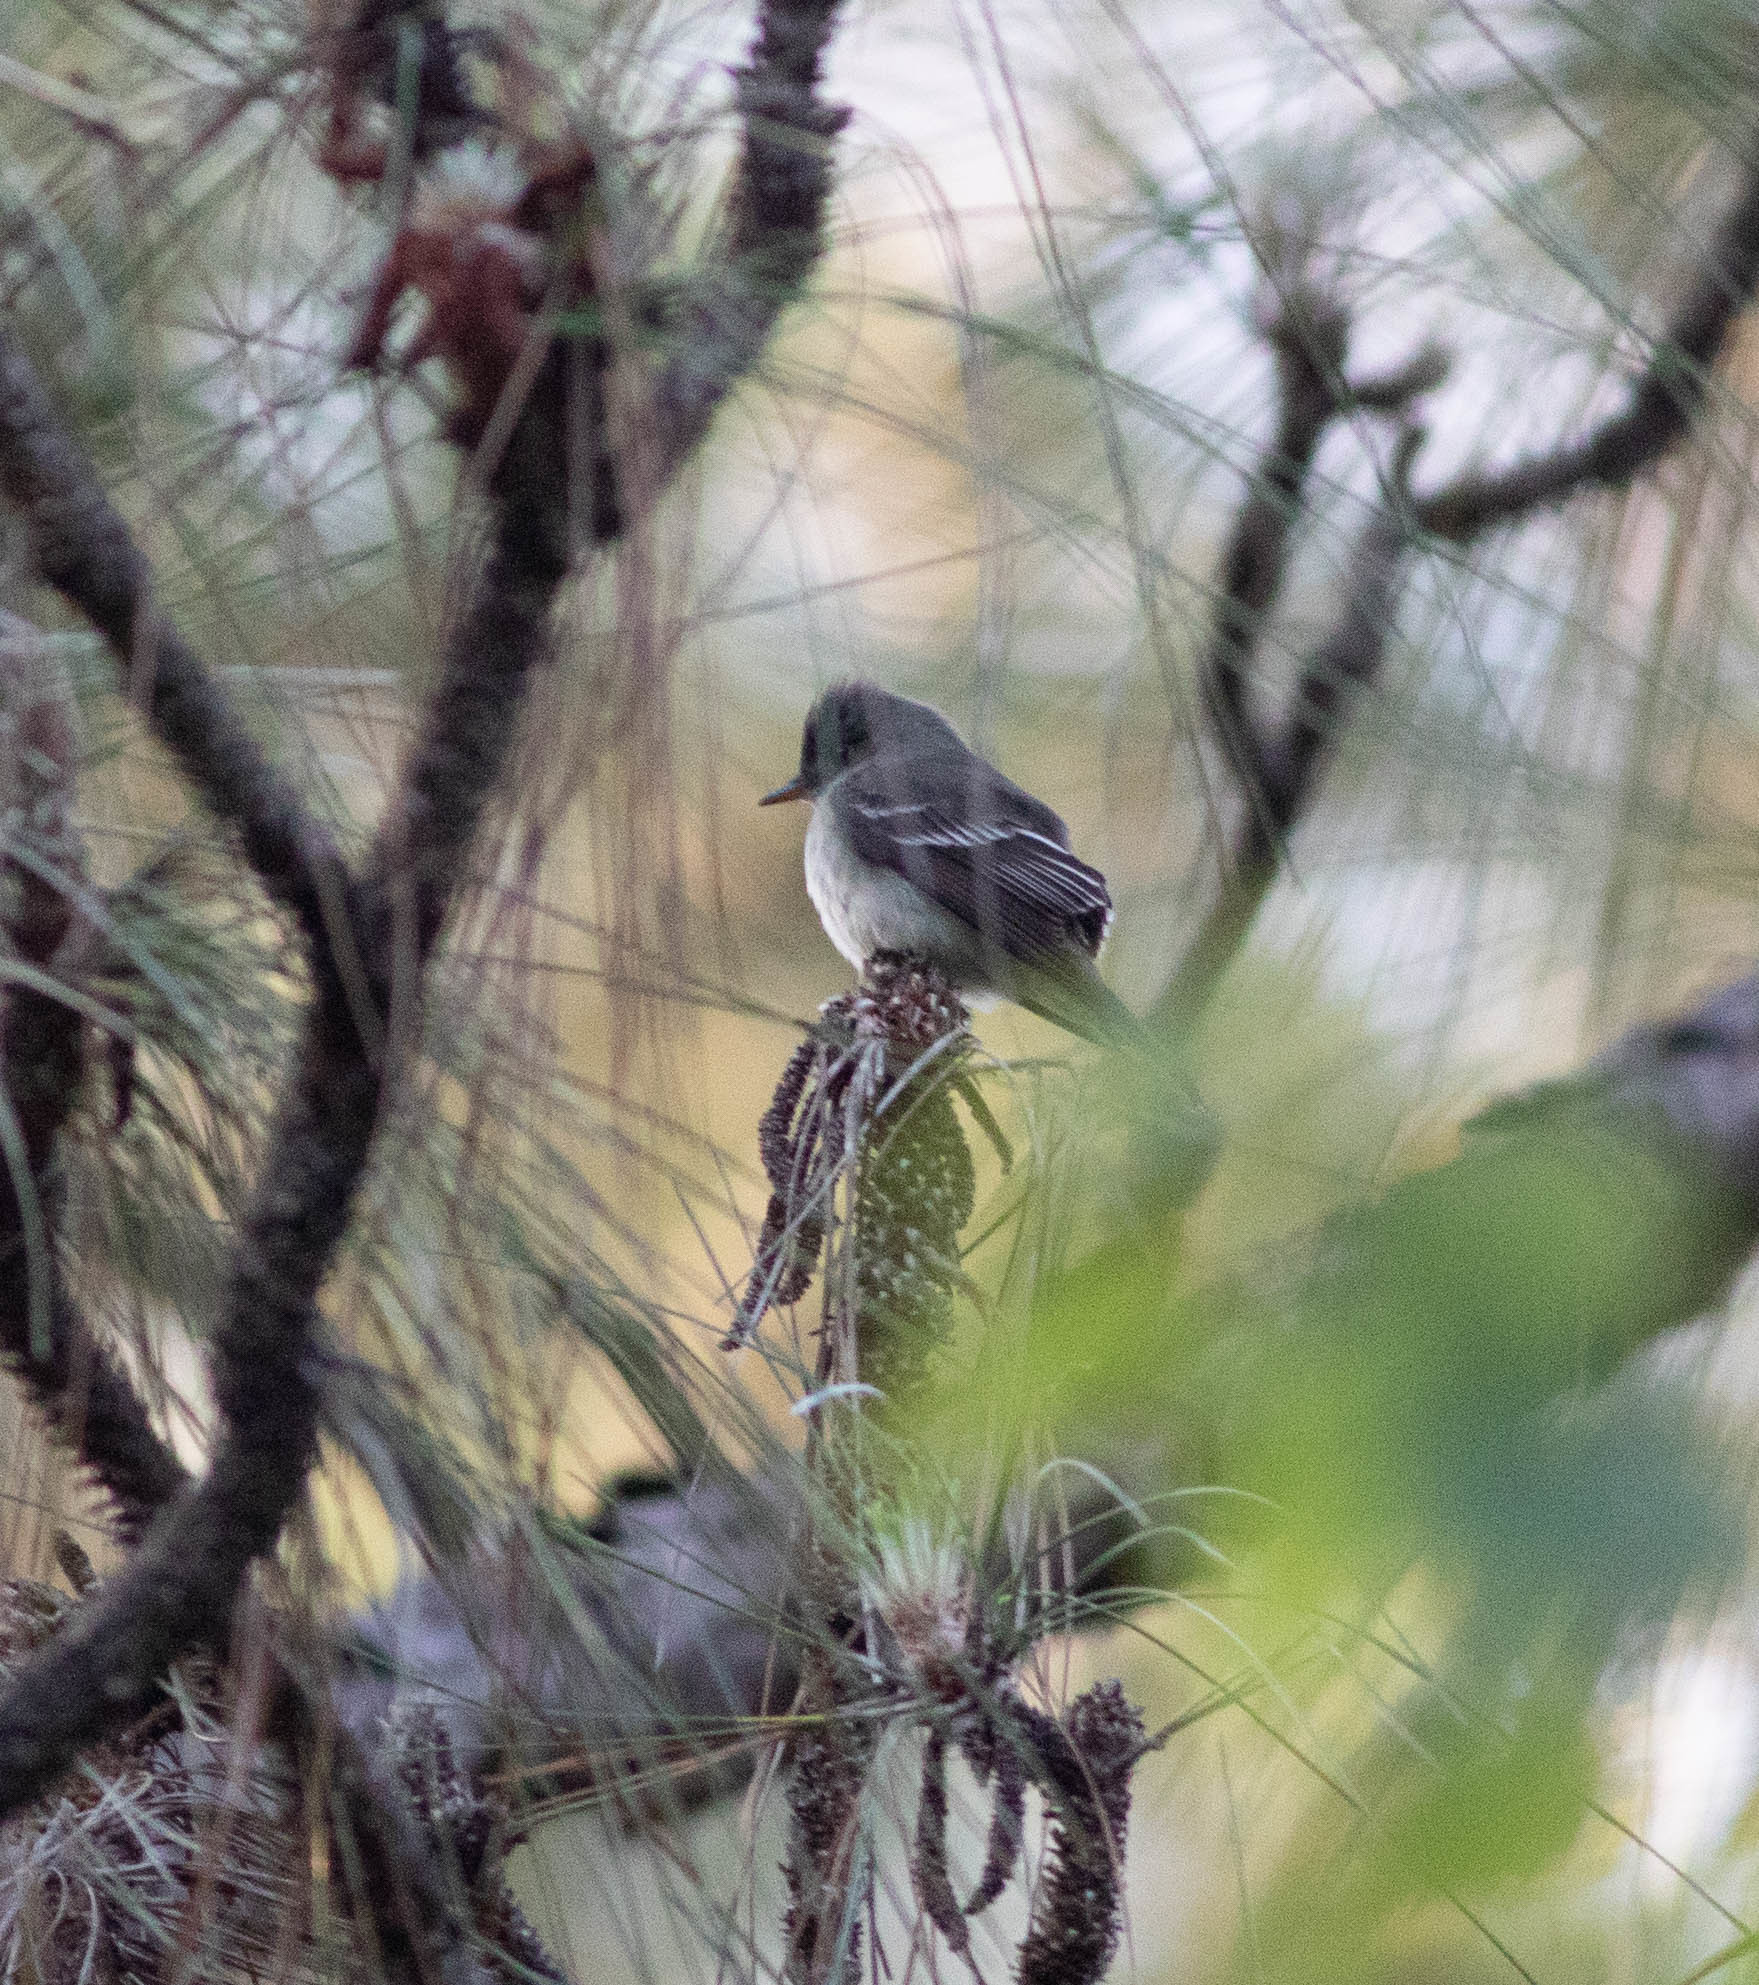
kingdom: Animalia
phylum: Chordata
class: Aves
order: Passeriformes
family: Tyrannidae
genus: Contopus
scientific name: Contopus virens
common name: Eastern wood-pewee
